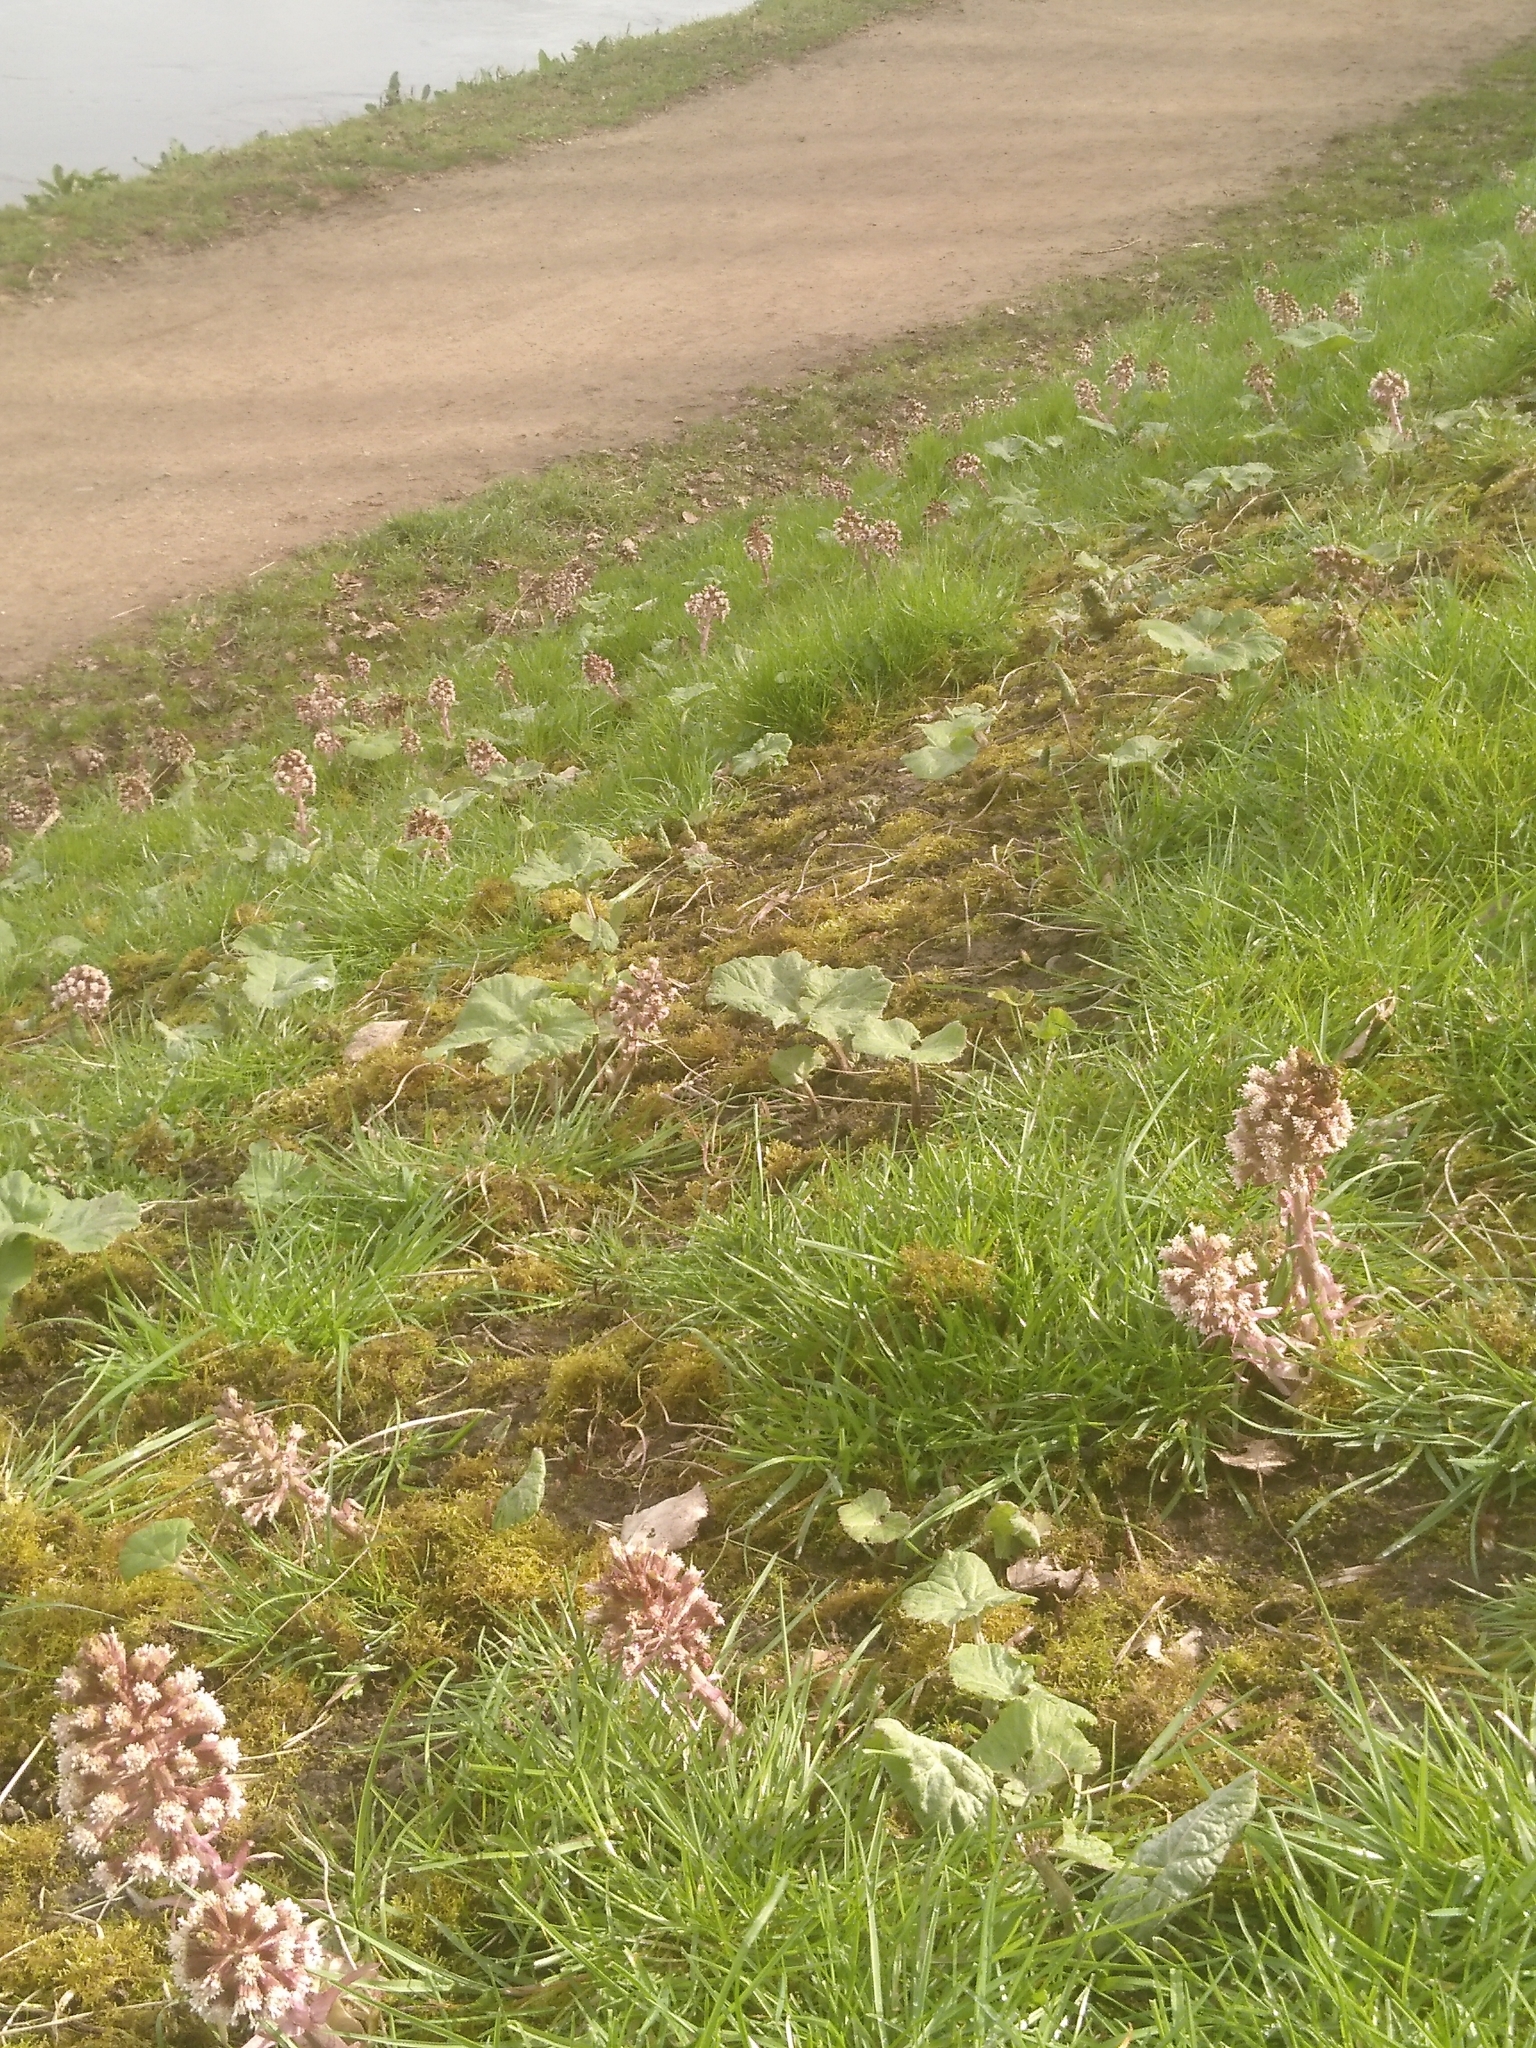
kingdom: Plantae
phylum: Tracheophyta
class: Magnoliopsida
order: Asterales
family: Asteraceae
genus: Petasites
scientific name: Petasites hybridus
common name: Butterbur
